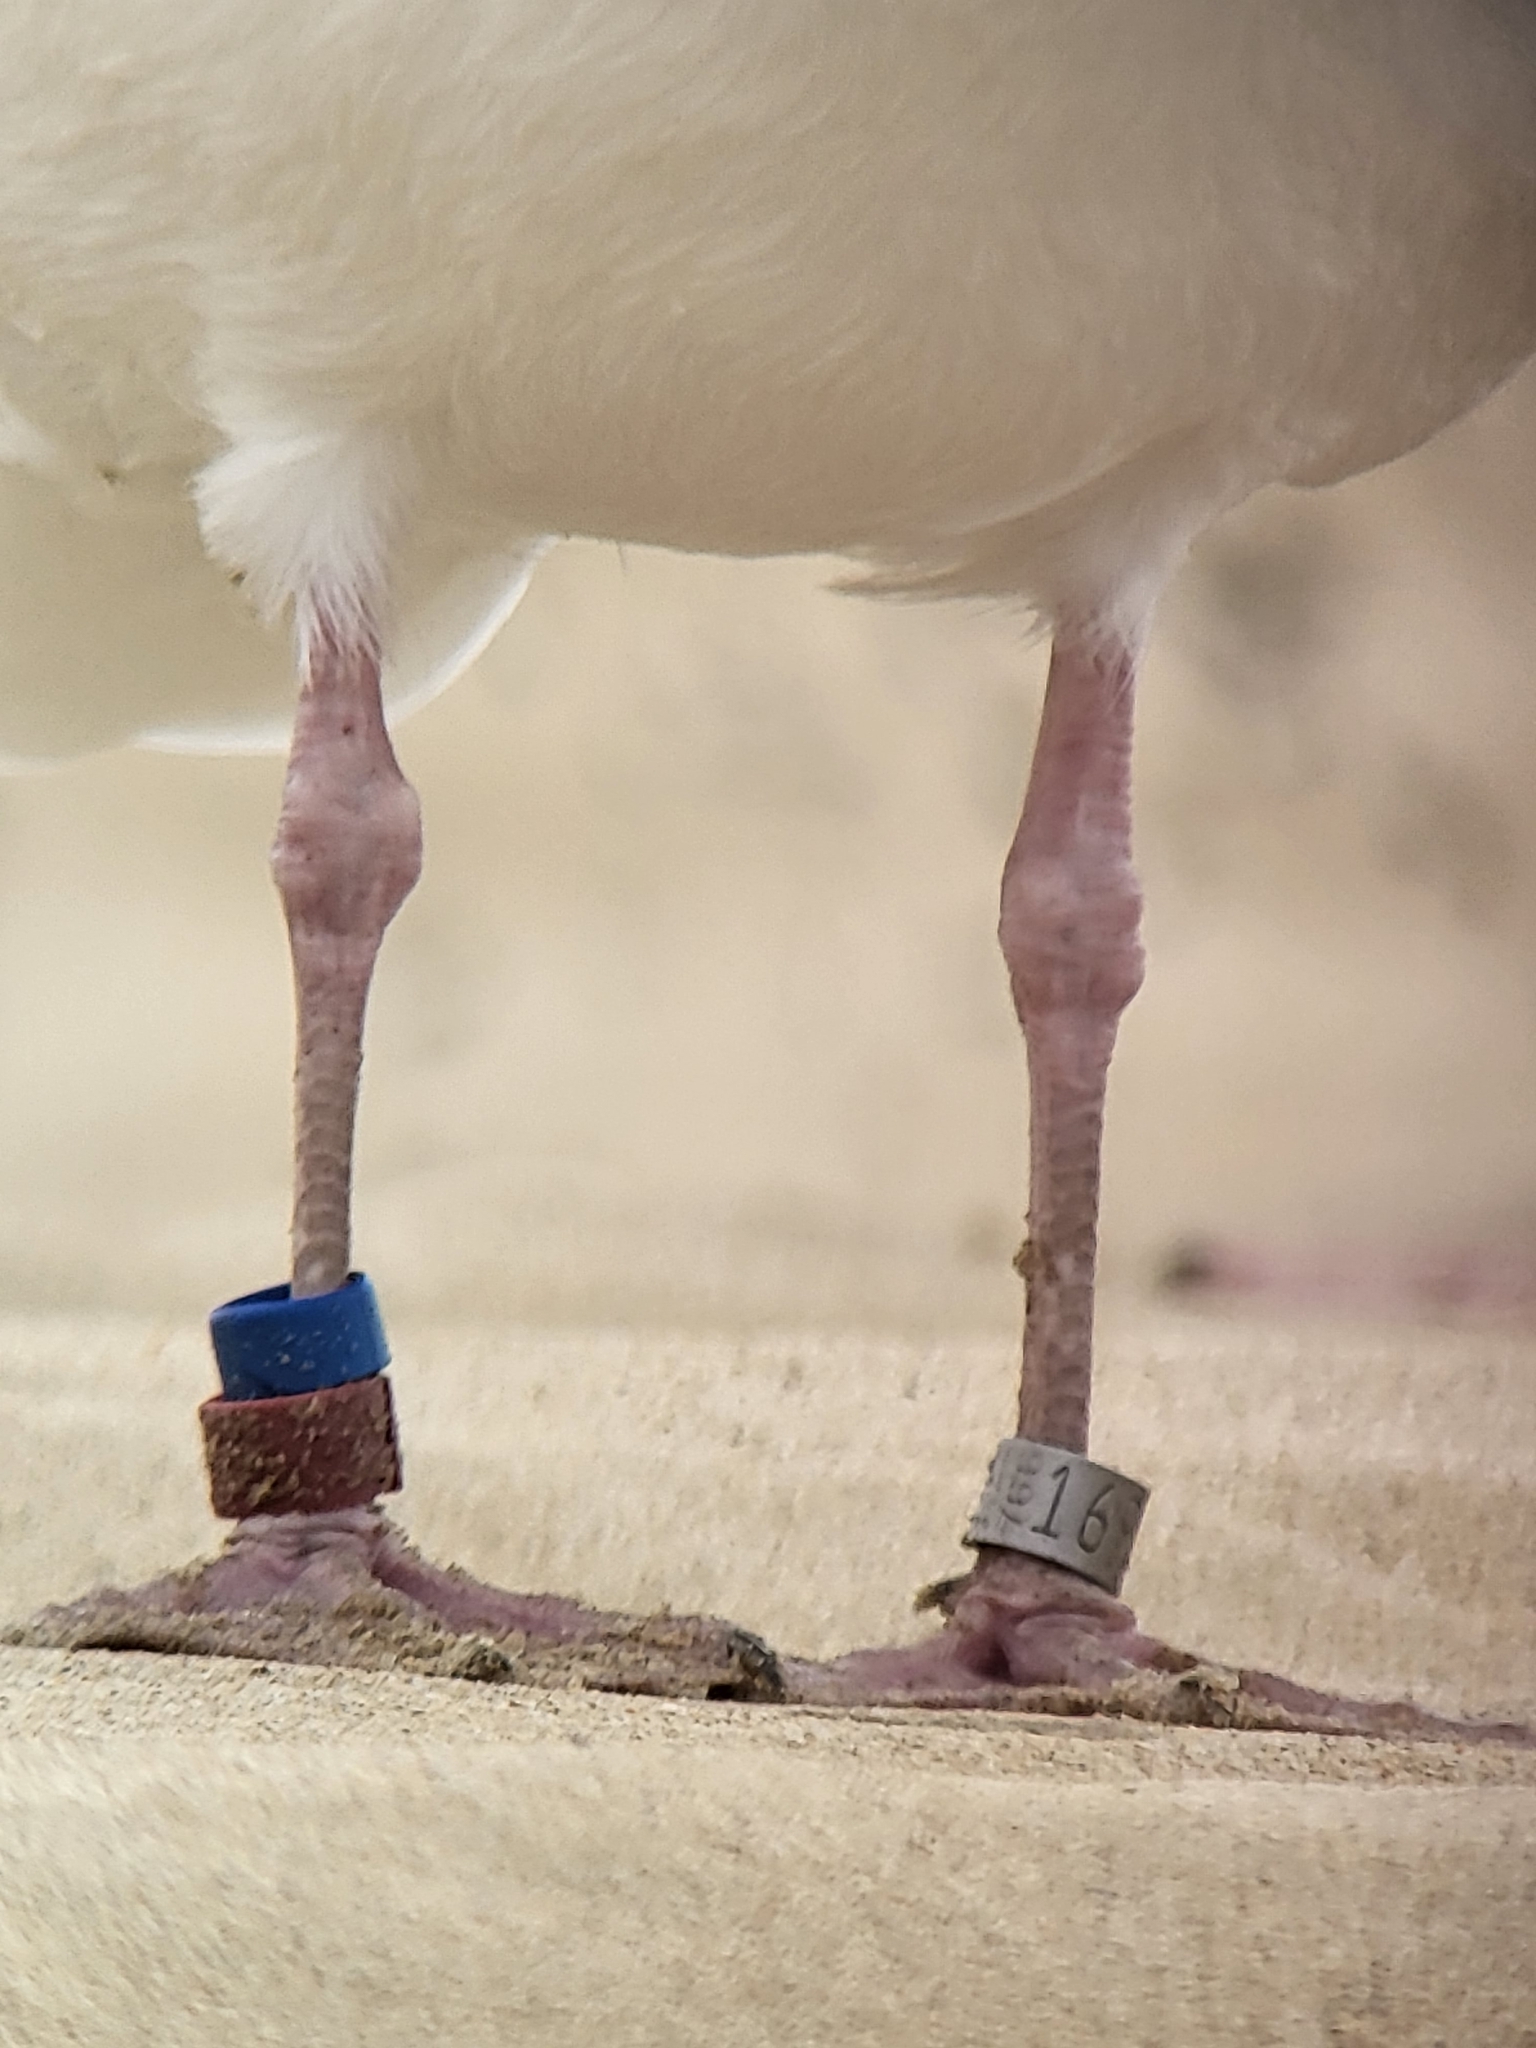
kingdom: Animalia
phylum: Chordata
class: Aves
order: Charadriiformes
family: Laridae
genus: Larus
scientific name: Larus occidentalis
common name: Western gull
